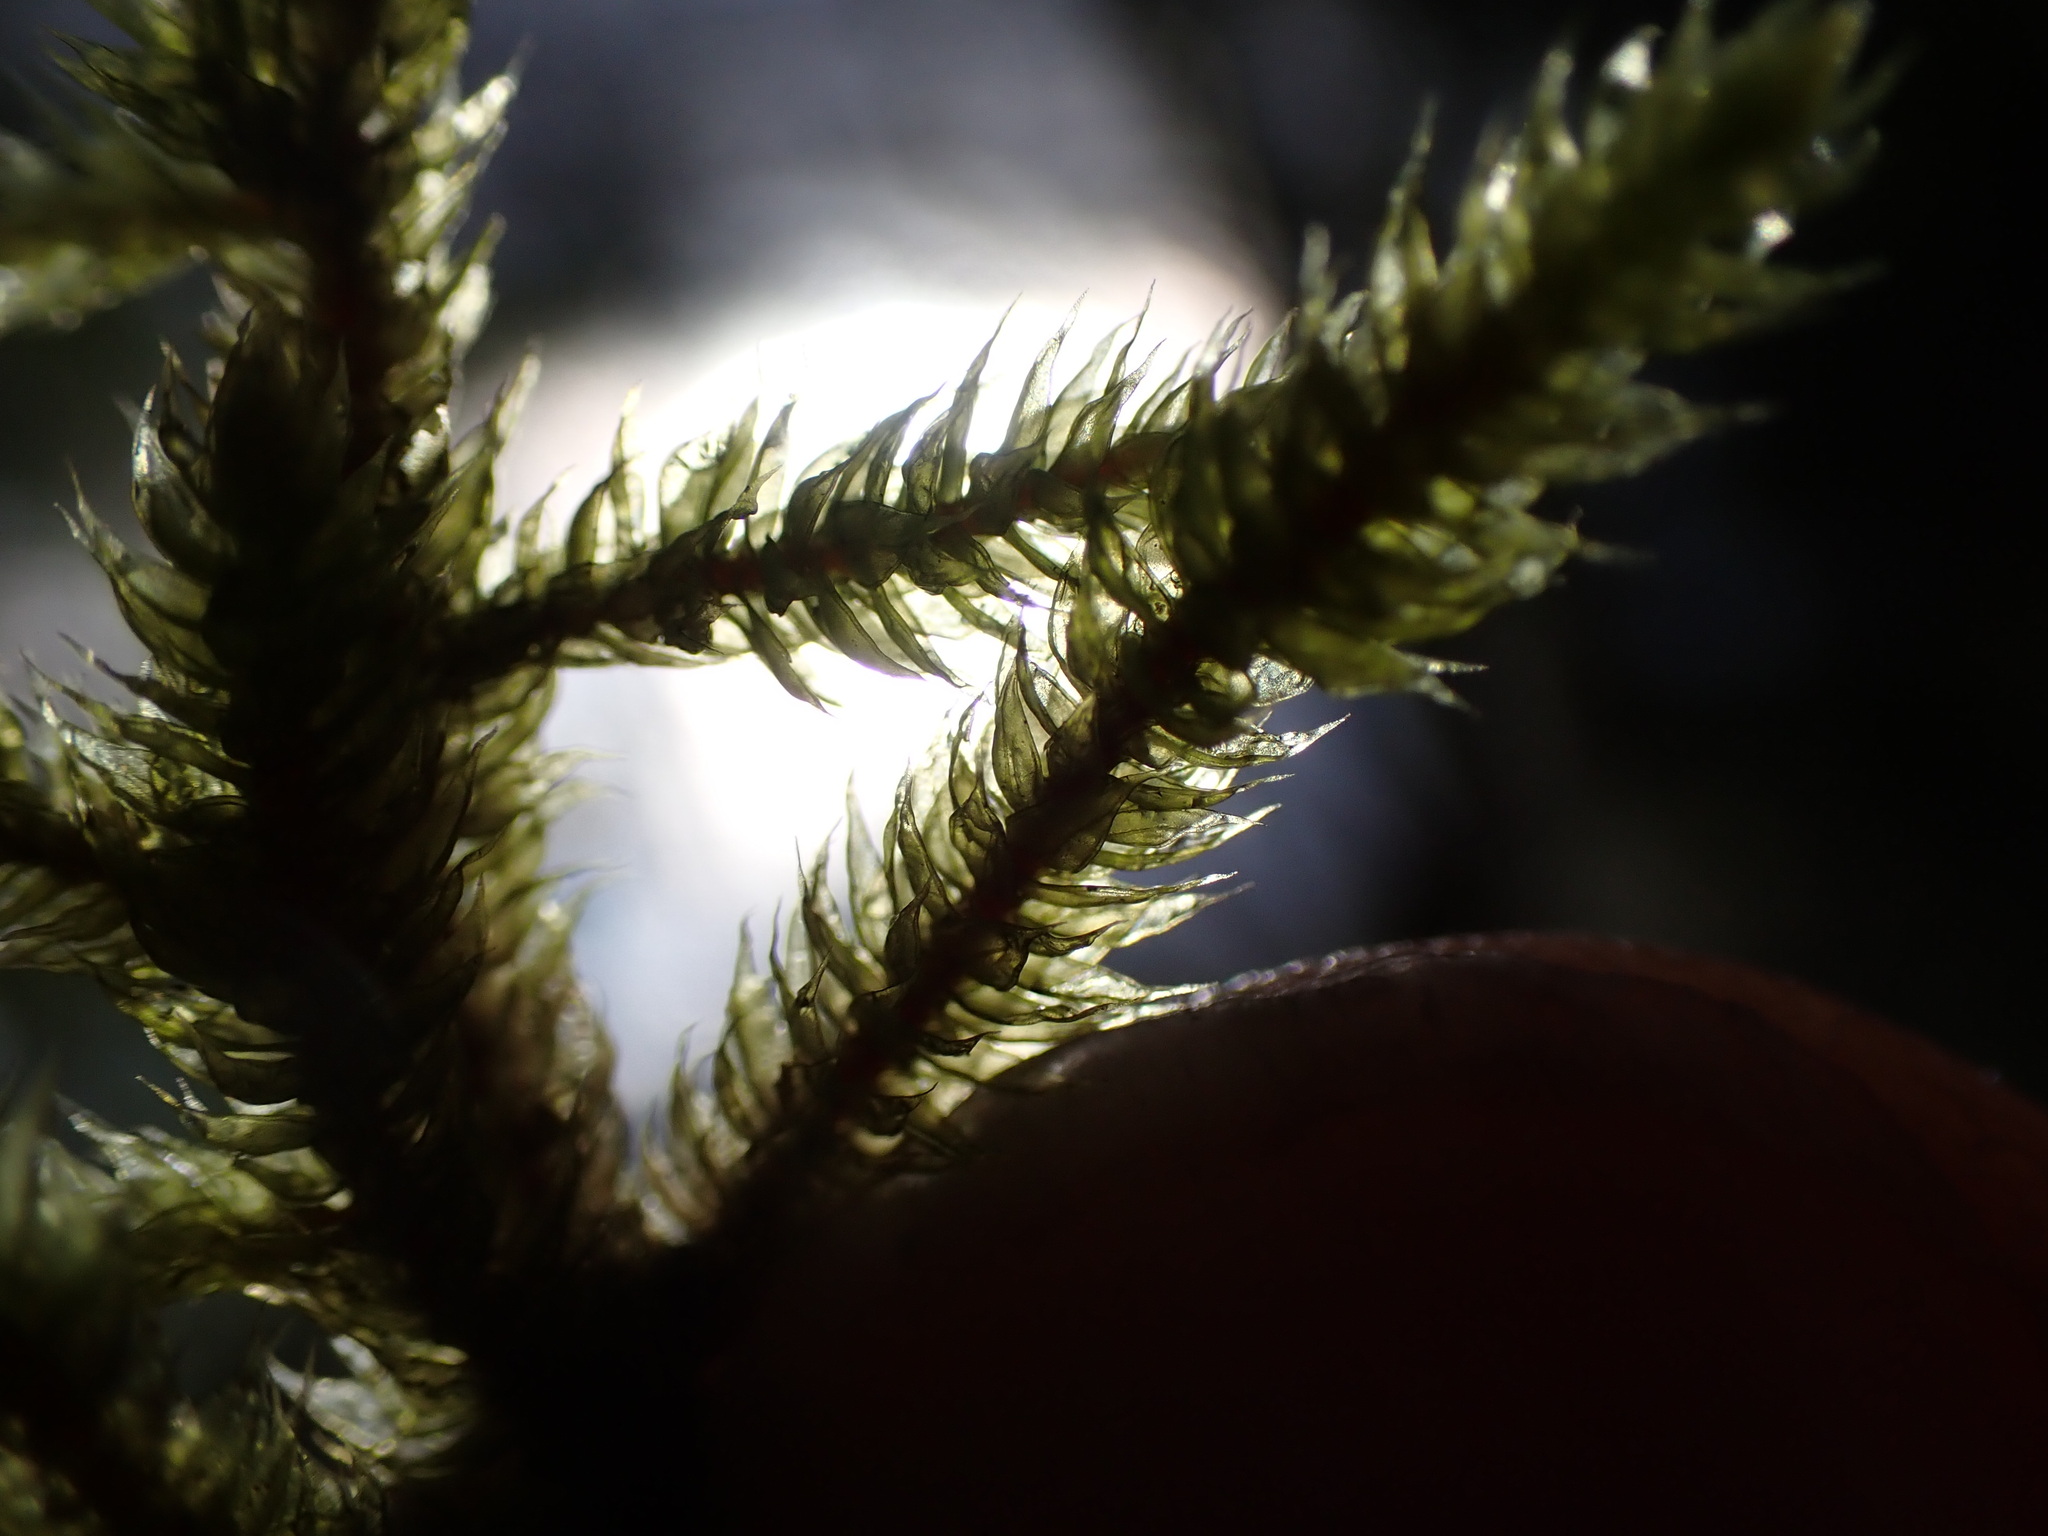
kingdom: Plantae
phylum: Bryophyta
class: Bryopsida
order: Hypnales
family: Antitrichiaceae
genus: Antitrichia
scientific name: Antitrichia curtipendula
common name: Pendulous wing-moss
